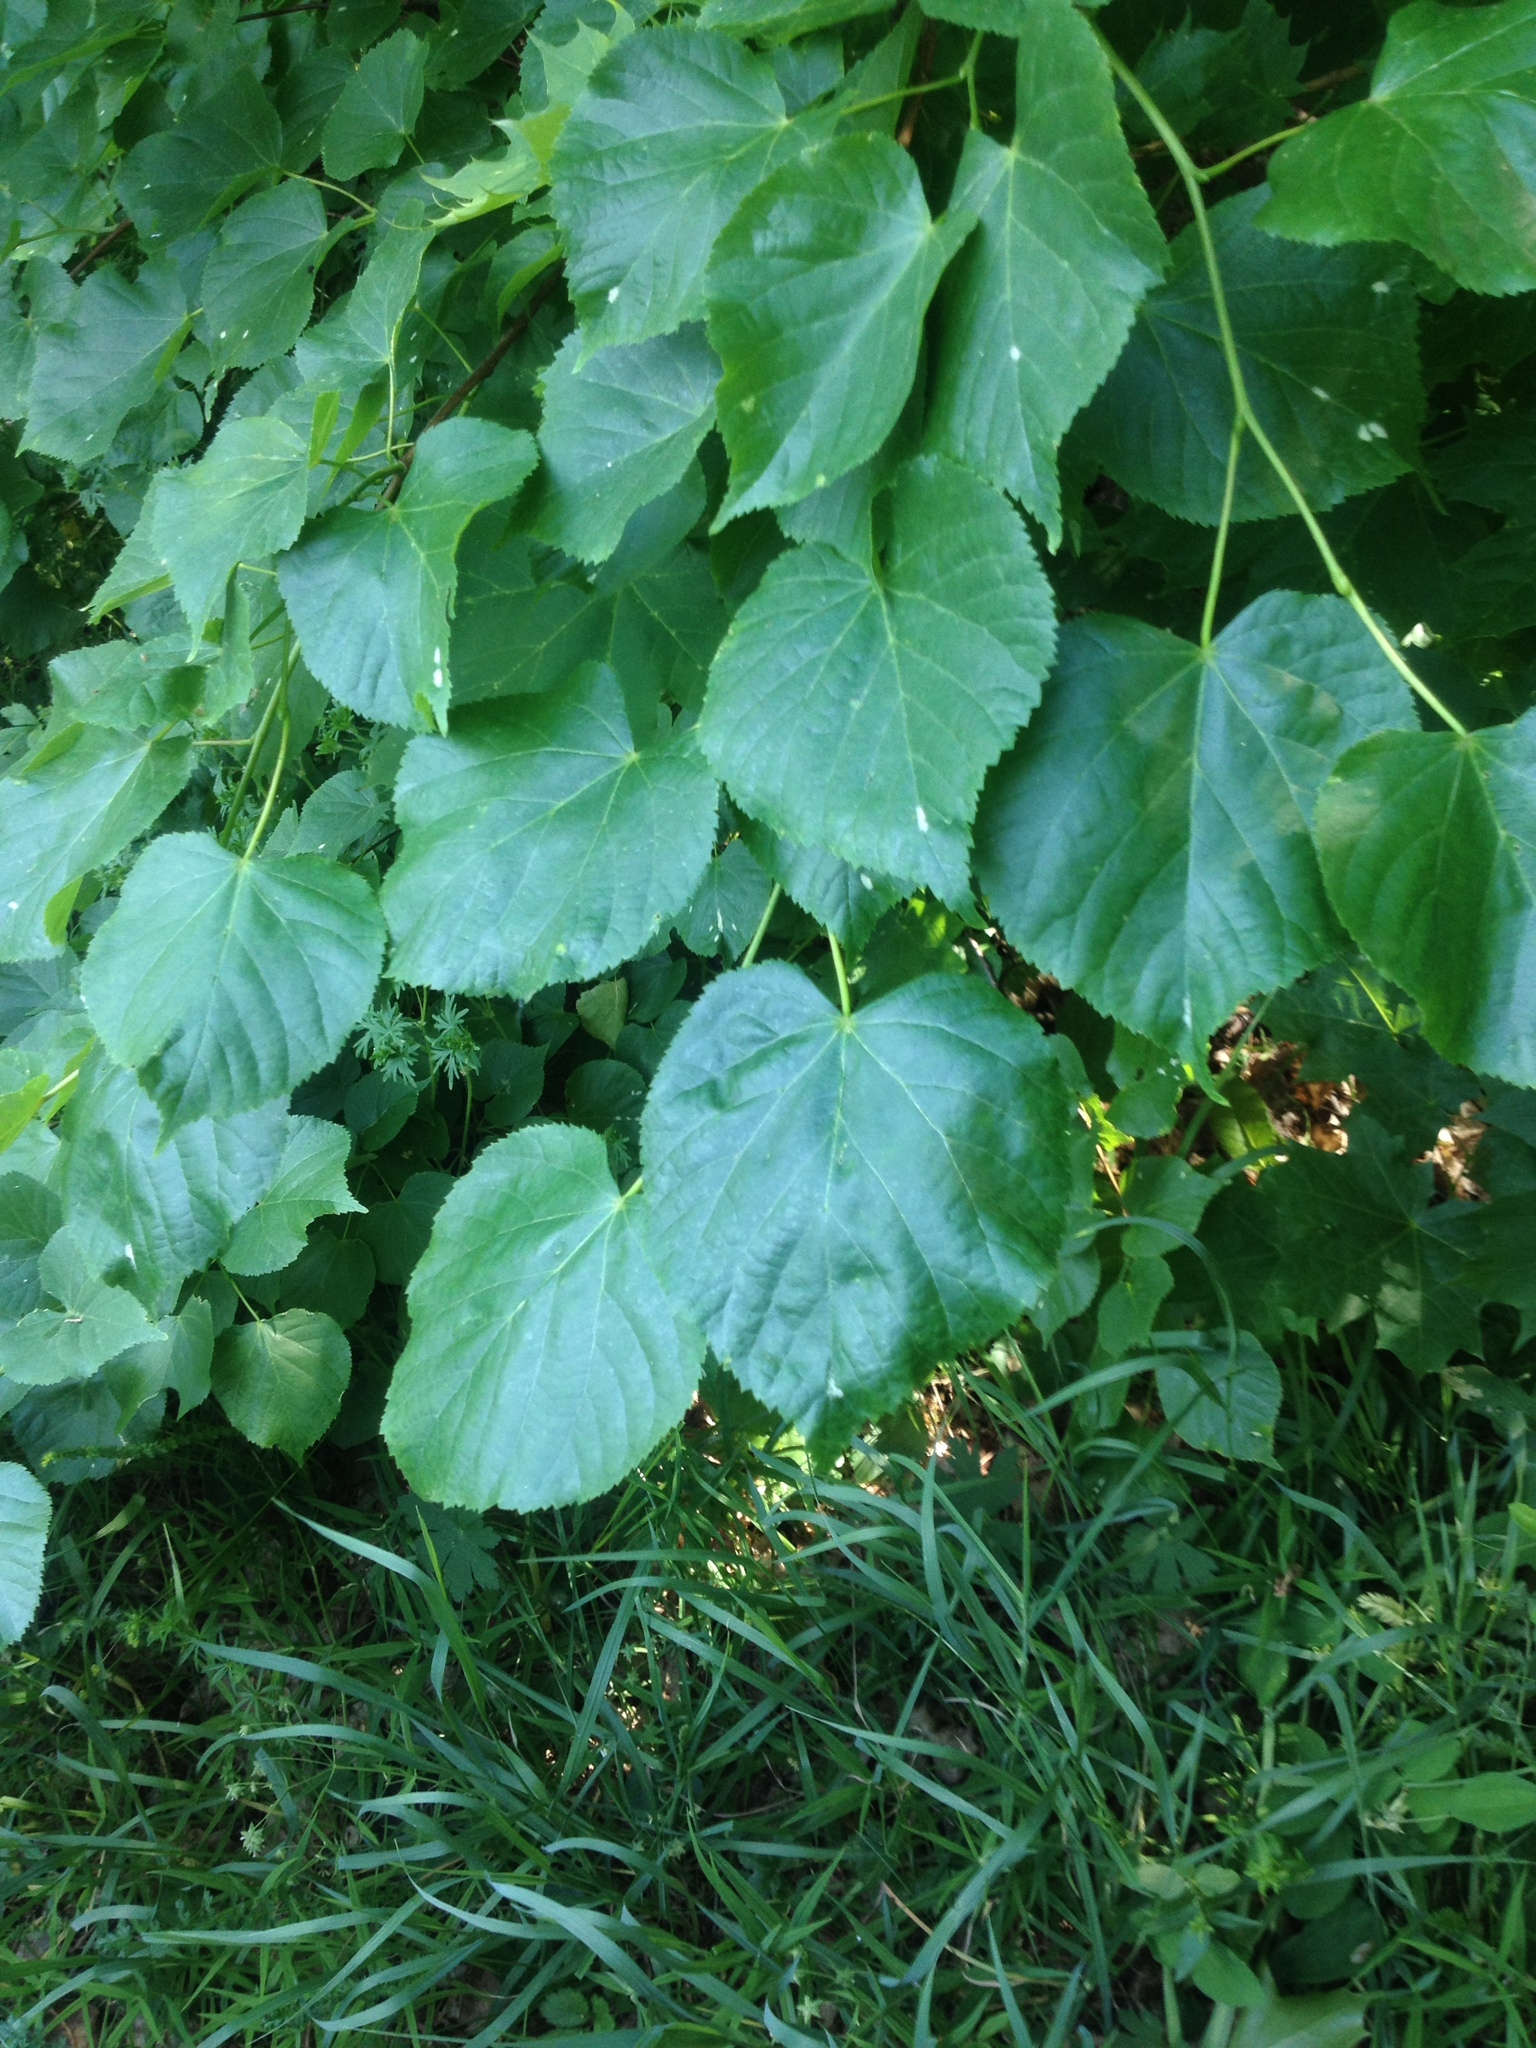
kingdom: Plantae
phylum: Tracheophyta
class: Magnoliopsida
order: Malvales
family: Malvaceae
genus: Tilia
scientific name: Tilia cordata
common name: Small-leaved lime
